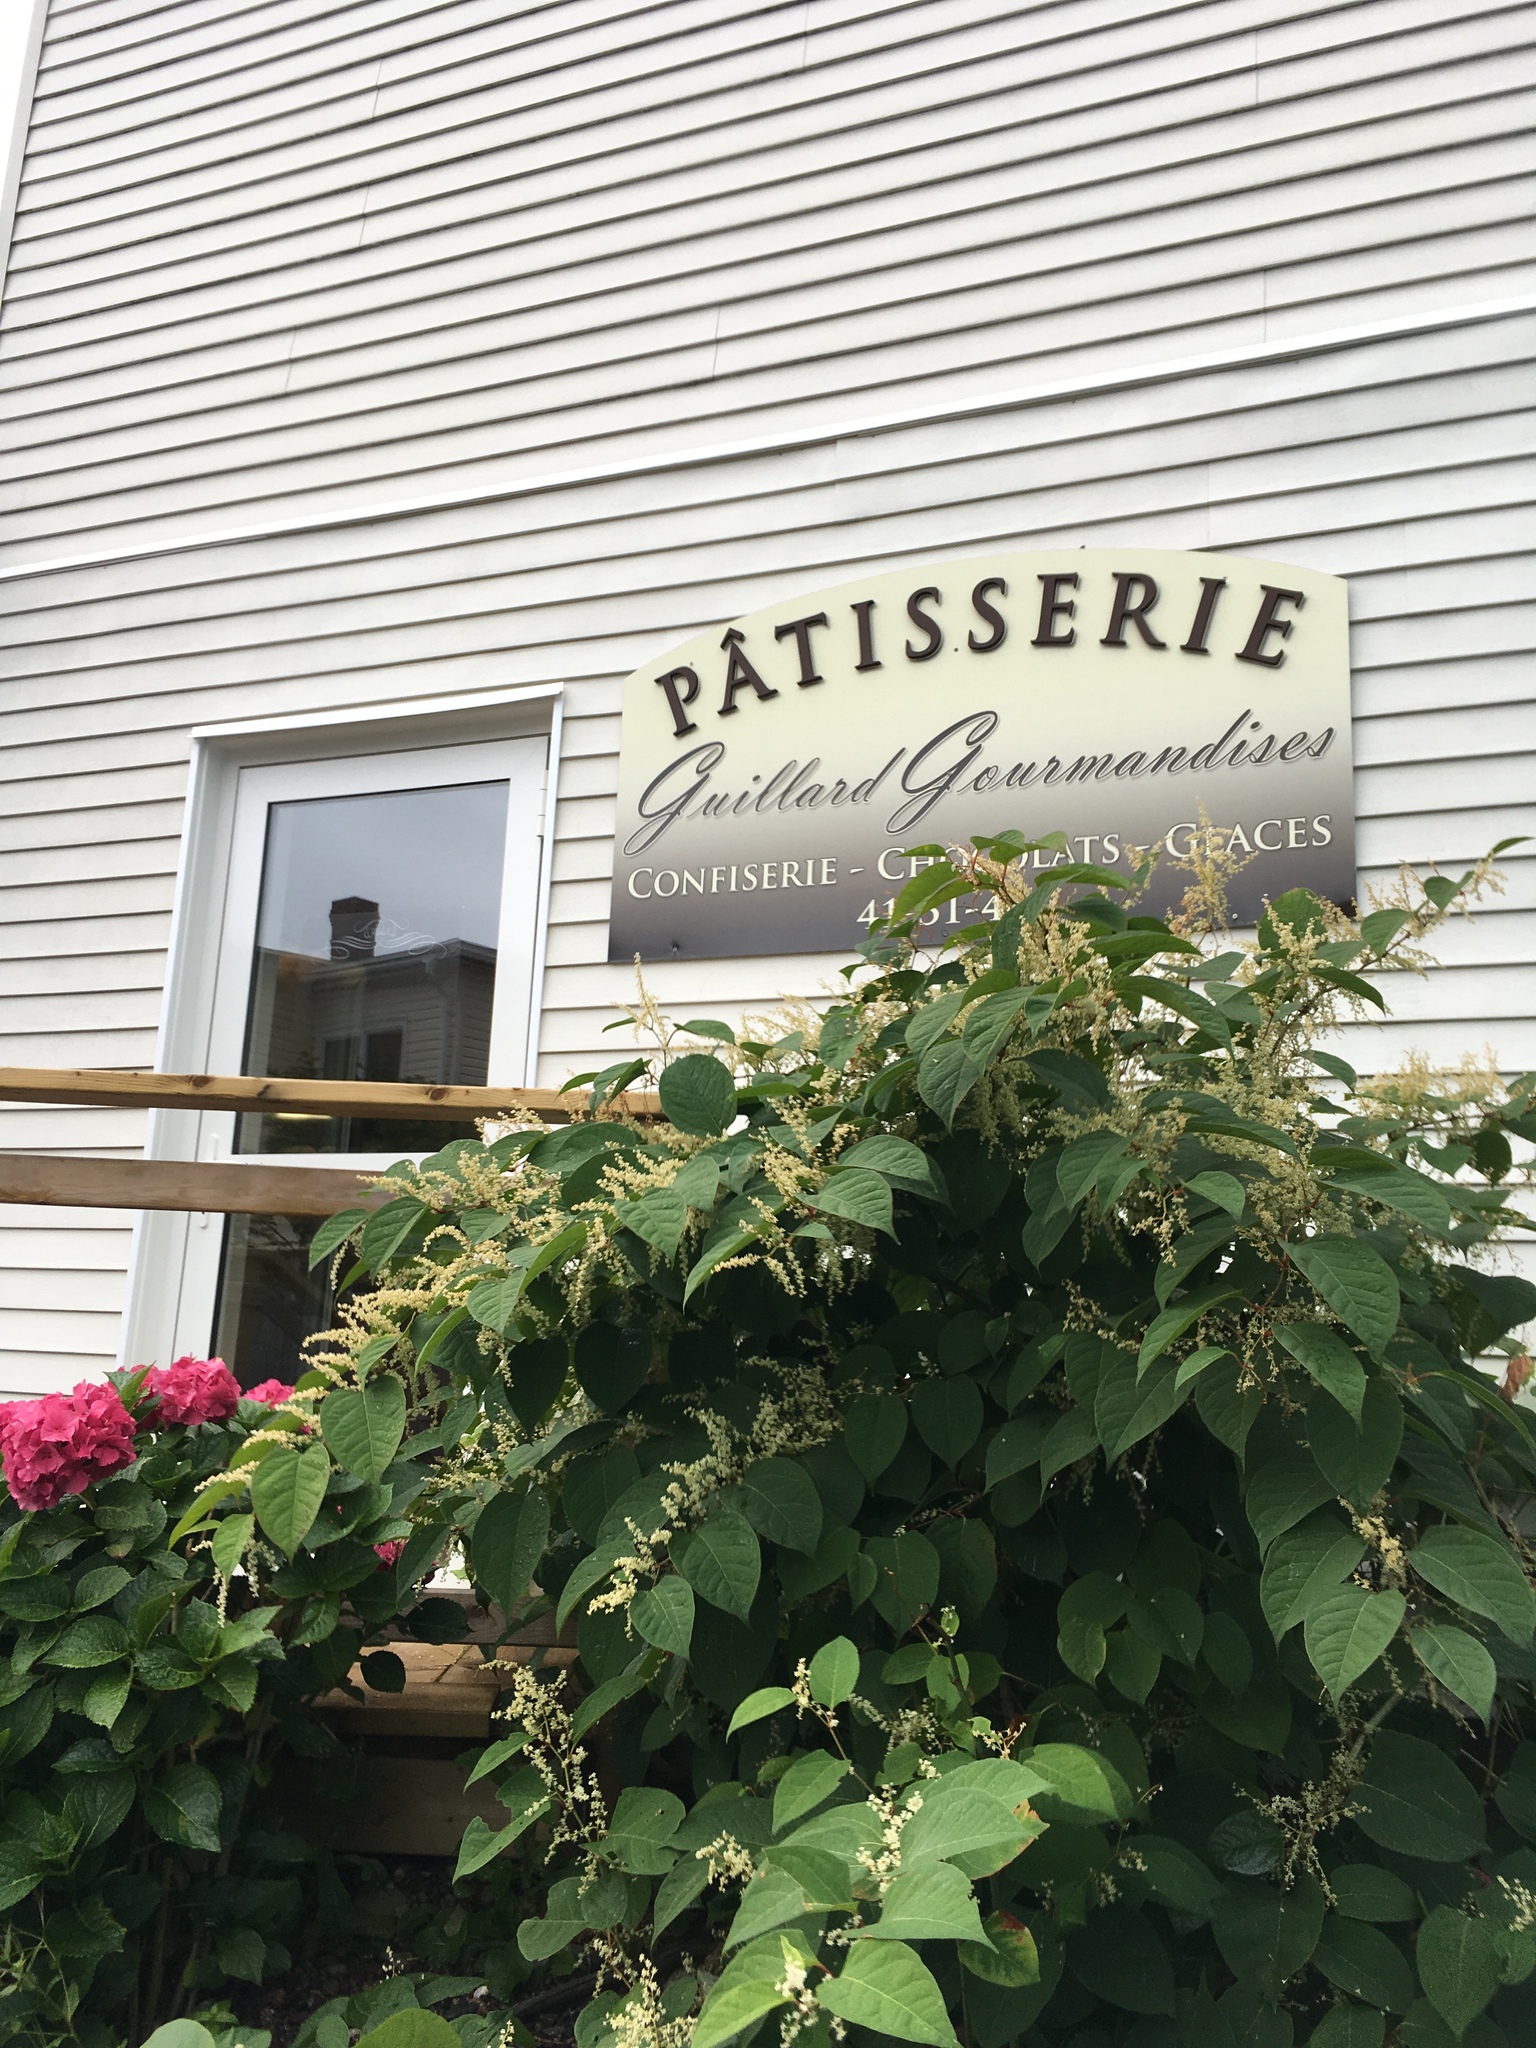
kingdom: Plantae
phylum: Tracheophyta
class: Magnoliopsida
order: Caryophyllales
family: Polygonaceae
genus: Reynoutria
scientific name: Reynoutria japonica
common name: Japanese knotweed
